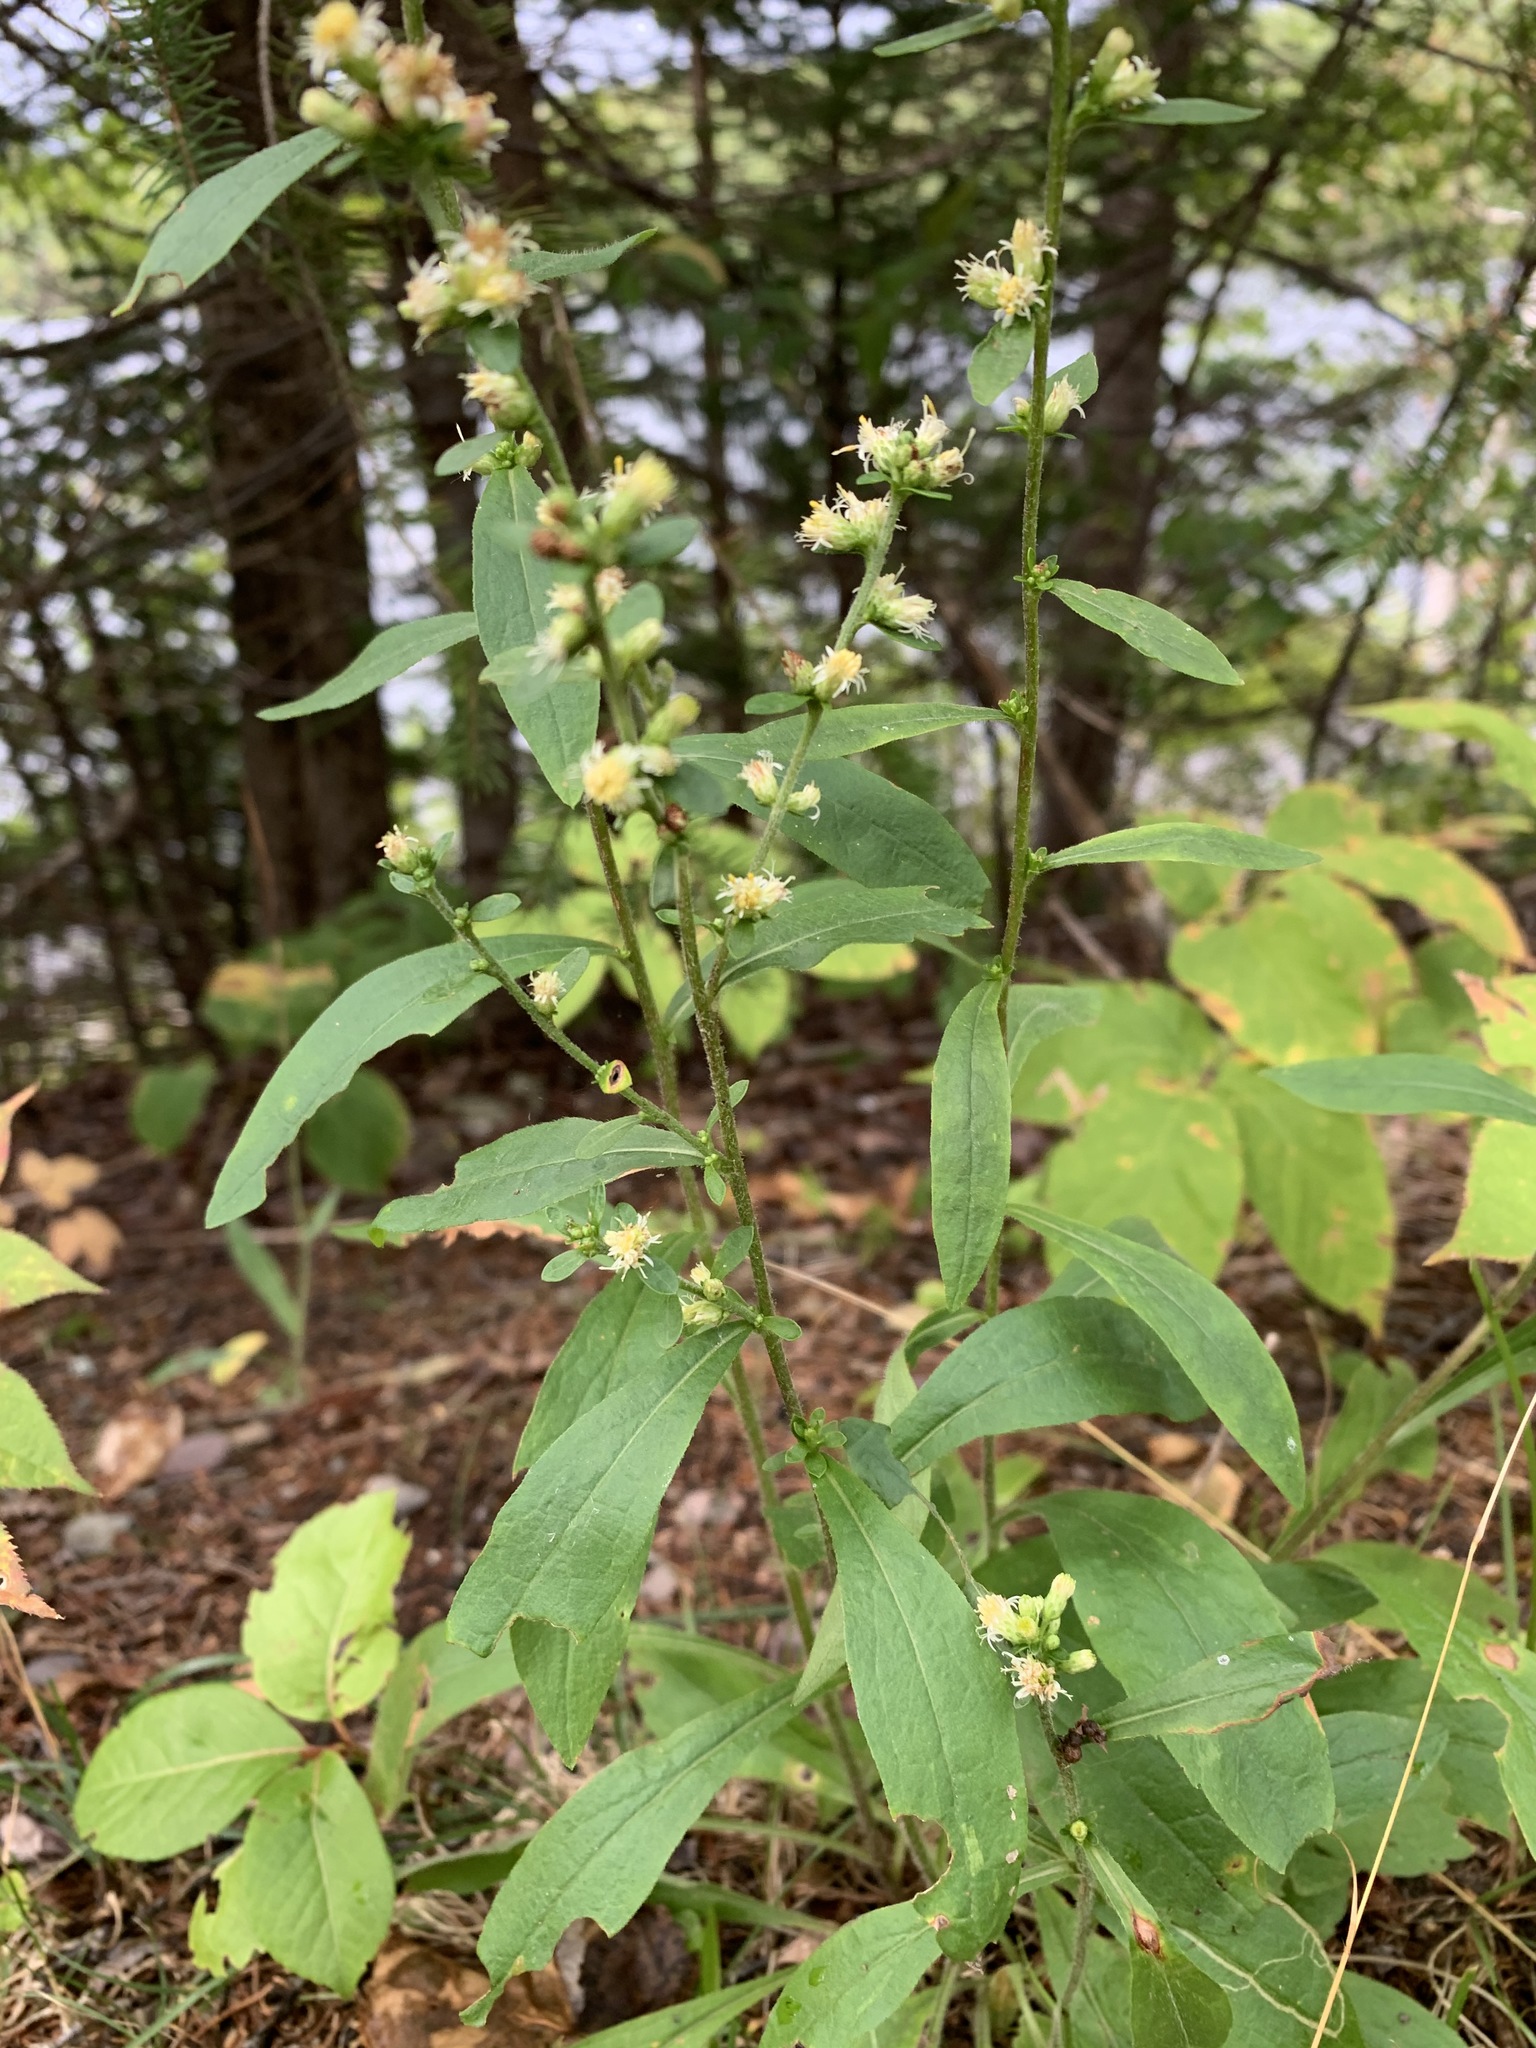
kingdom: Plantae
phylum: Tracheophyta
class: Magnoliopsida
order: Asterales
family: Asteraceae
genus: Solidago
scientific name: Solidago bicolor
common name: Silverrod
